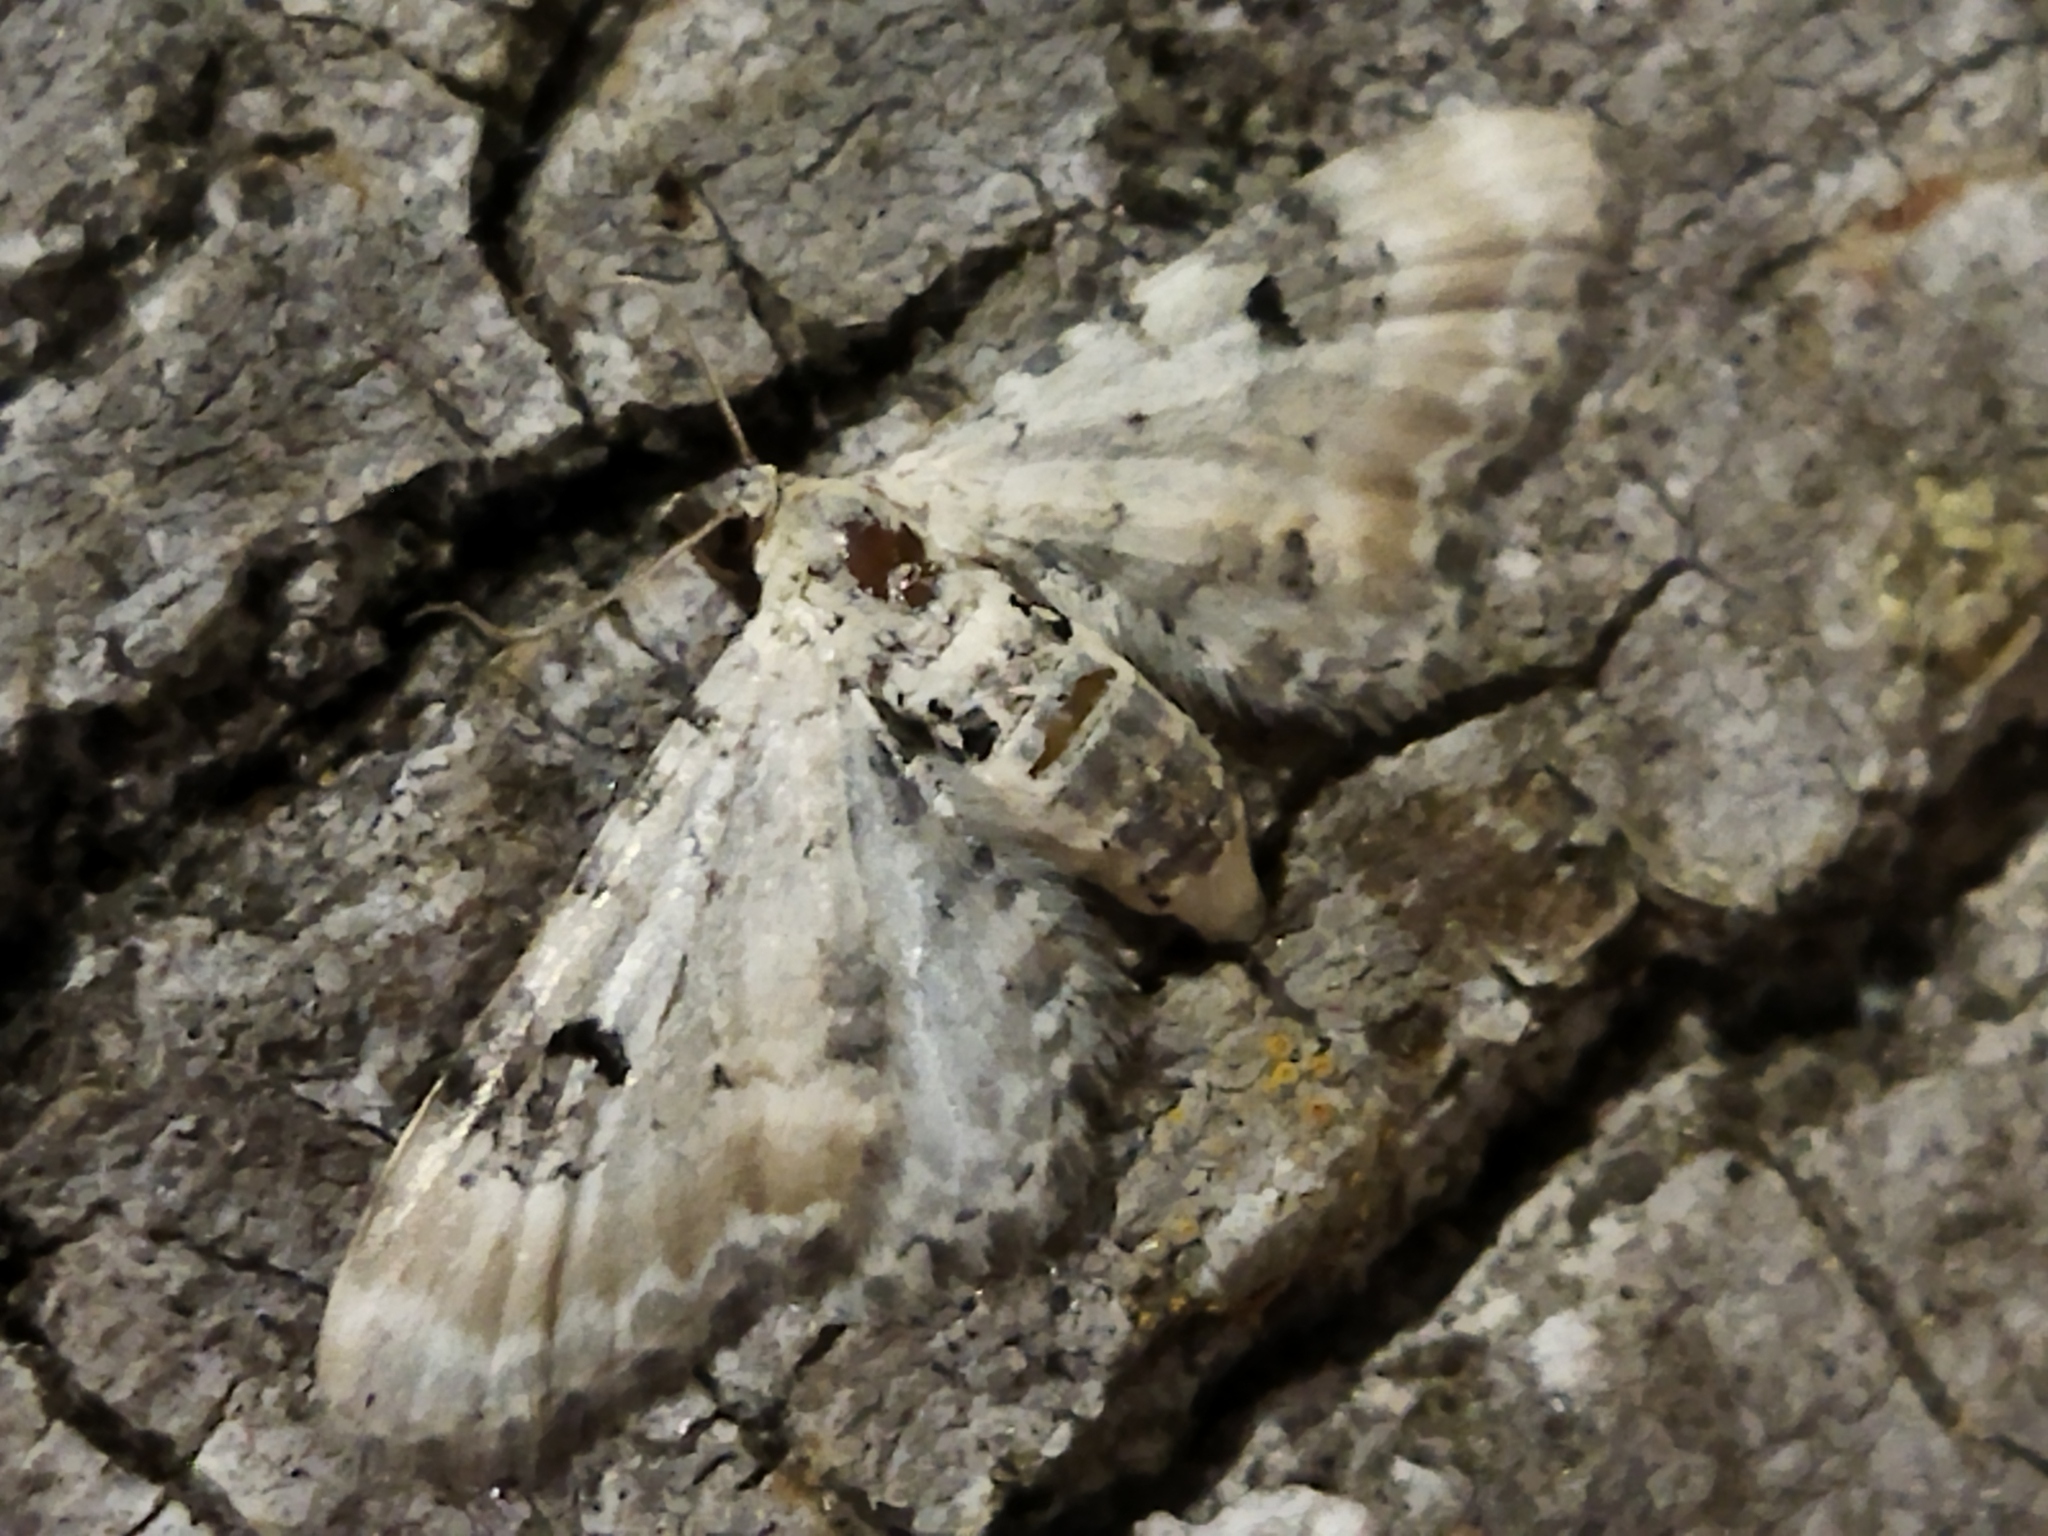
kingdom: Animalia
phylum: Arthropoda
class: Insecta
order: Lepidoptera
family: Geometridae
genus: Eupithecia
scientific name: Eupithecia centaureata
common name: Lime-speck pug
